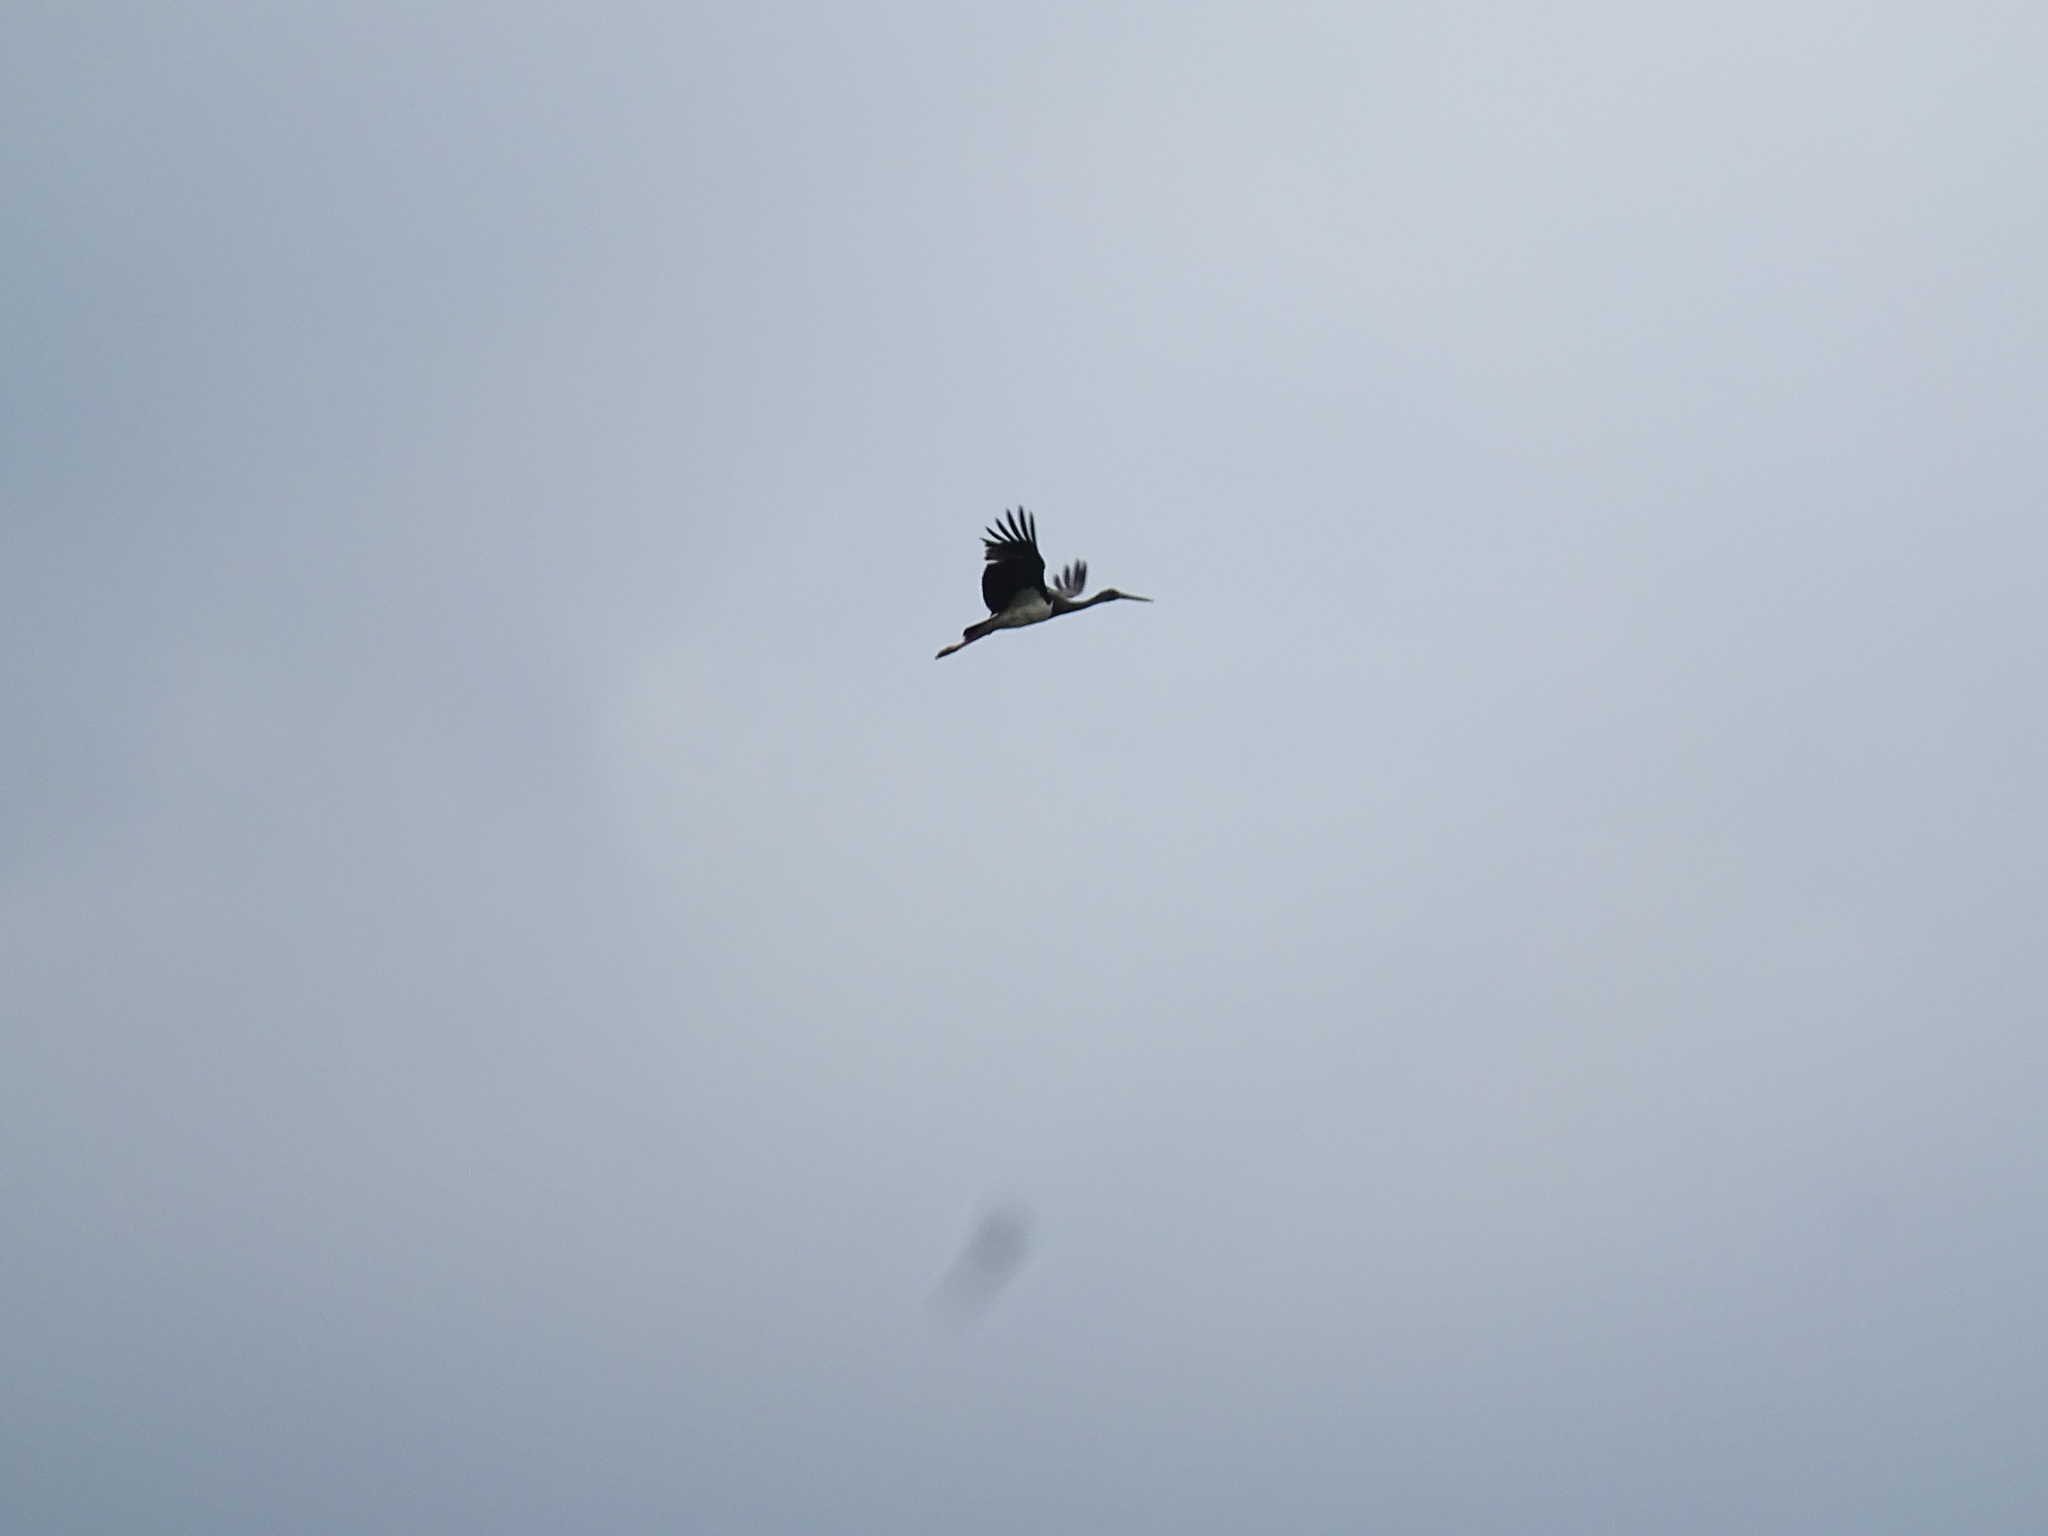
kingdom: Animalia
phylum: Chordata
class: Aves
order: Ciconiiformes
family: Ciconiidae
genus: Ciconia
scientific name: Ciconia nigra
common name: Black stork
